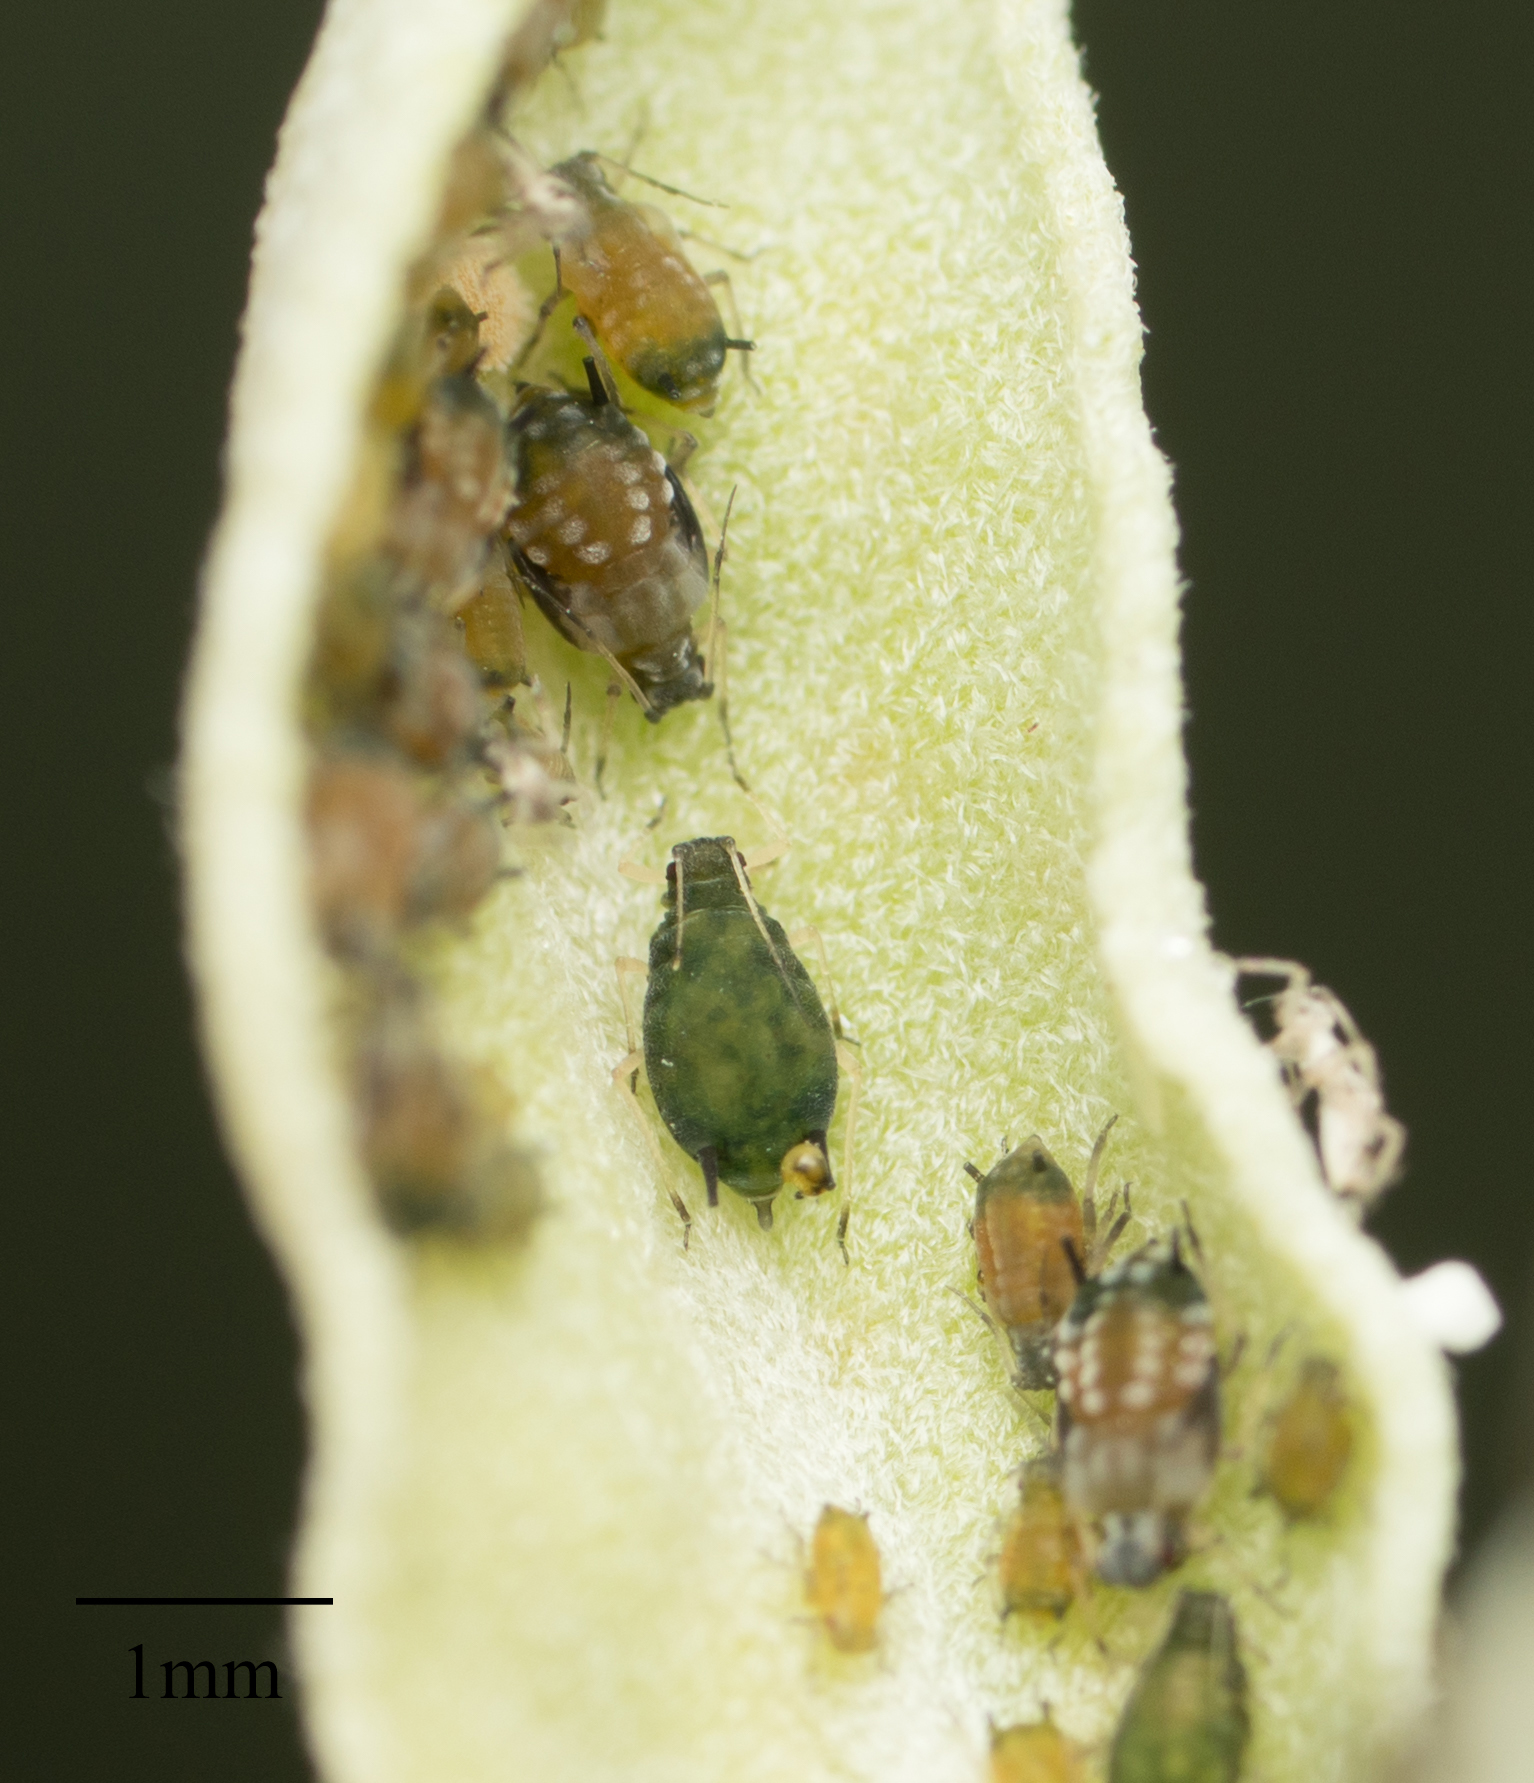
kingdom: Animalia
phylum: Arthropoda
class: Insecta
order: Hemiptera
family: Aphididae
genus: Aphis
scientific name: Aphis gossypii
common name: Melon aphid
